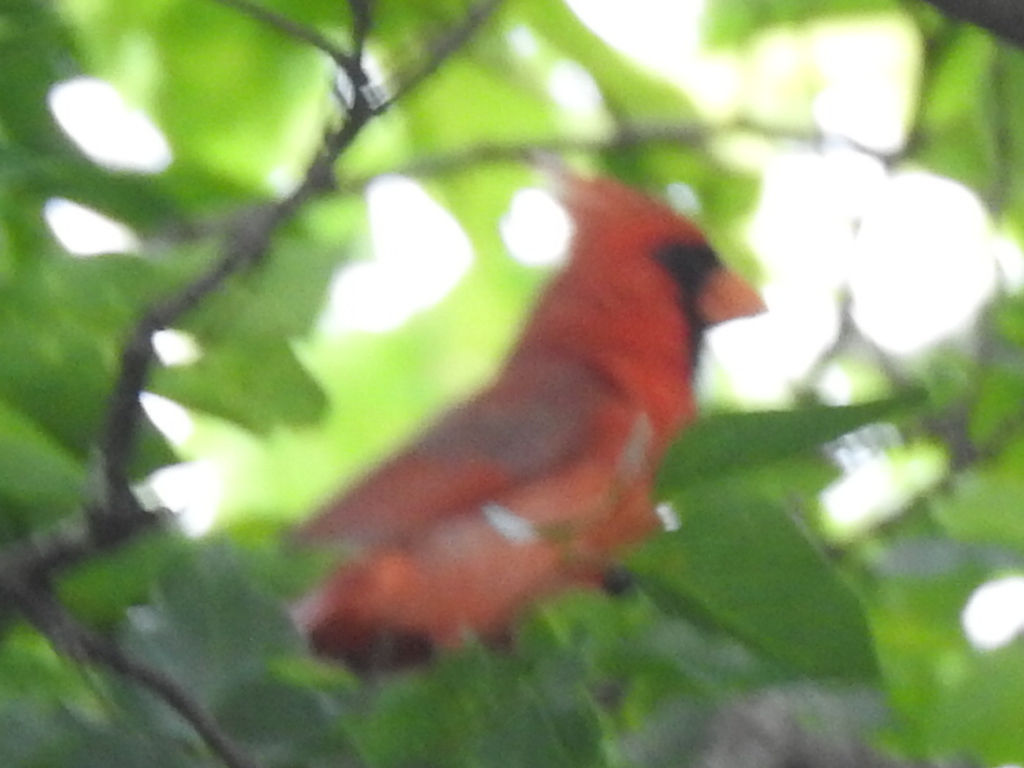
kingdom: Animalia
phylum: Chordata
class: Aves
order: Passeriformes
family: Cardinalidae
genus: Cardinalis
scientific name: Cardinalis cardinalis
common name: Northern cardinal
